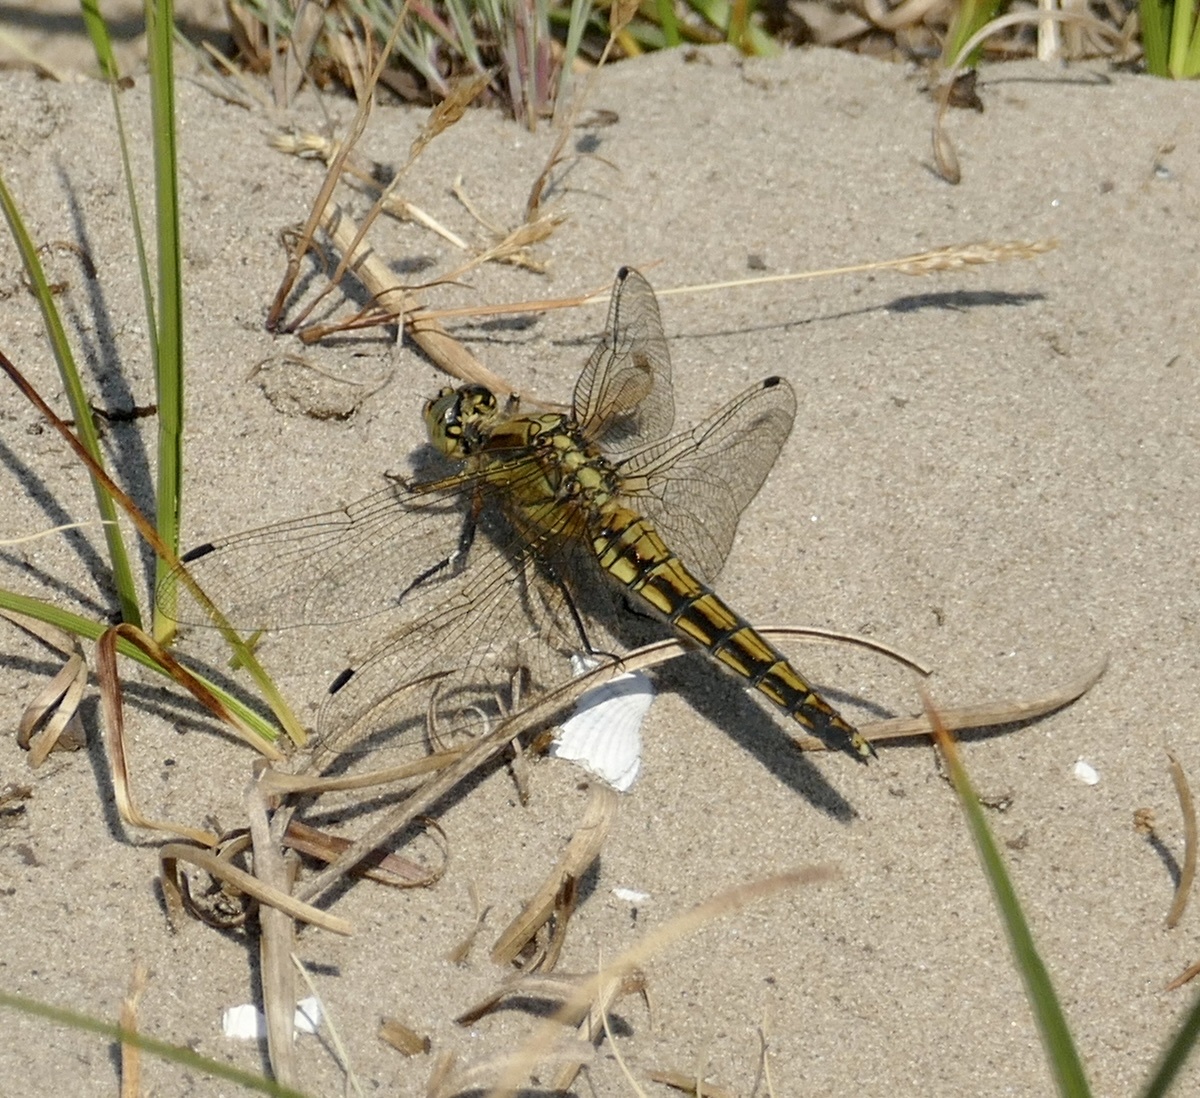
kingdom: Animalia
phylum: Arthropoda
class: Insecta
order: Odonata
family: Libellulidae
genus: Orthetrum
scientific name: Orthetrum cancellatum
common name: Black-tailed skimmer
